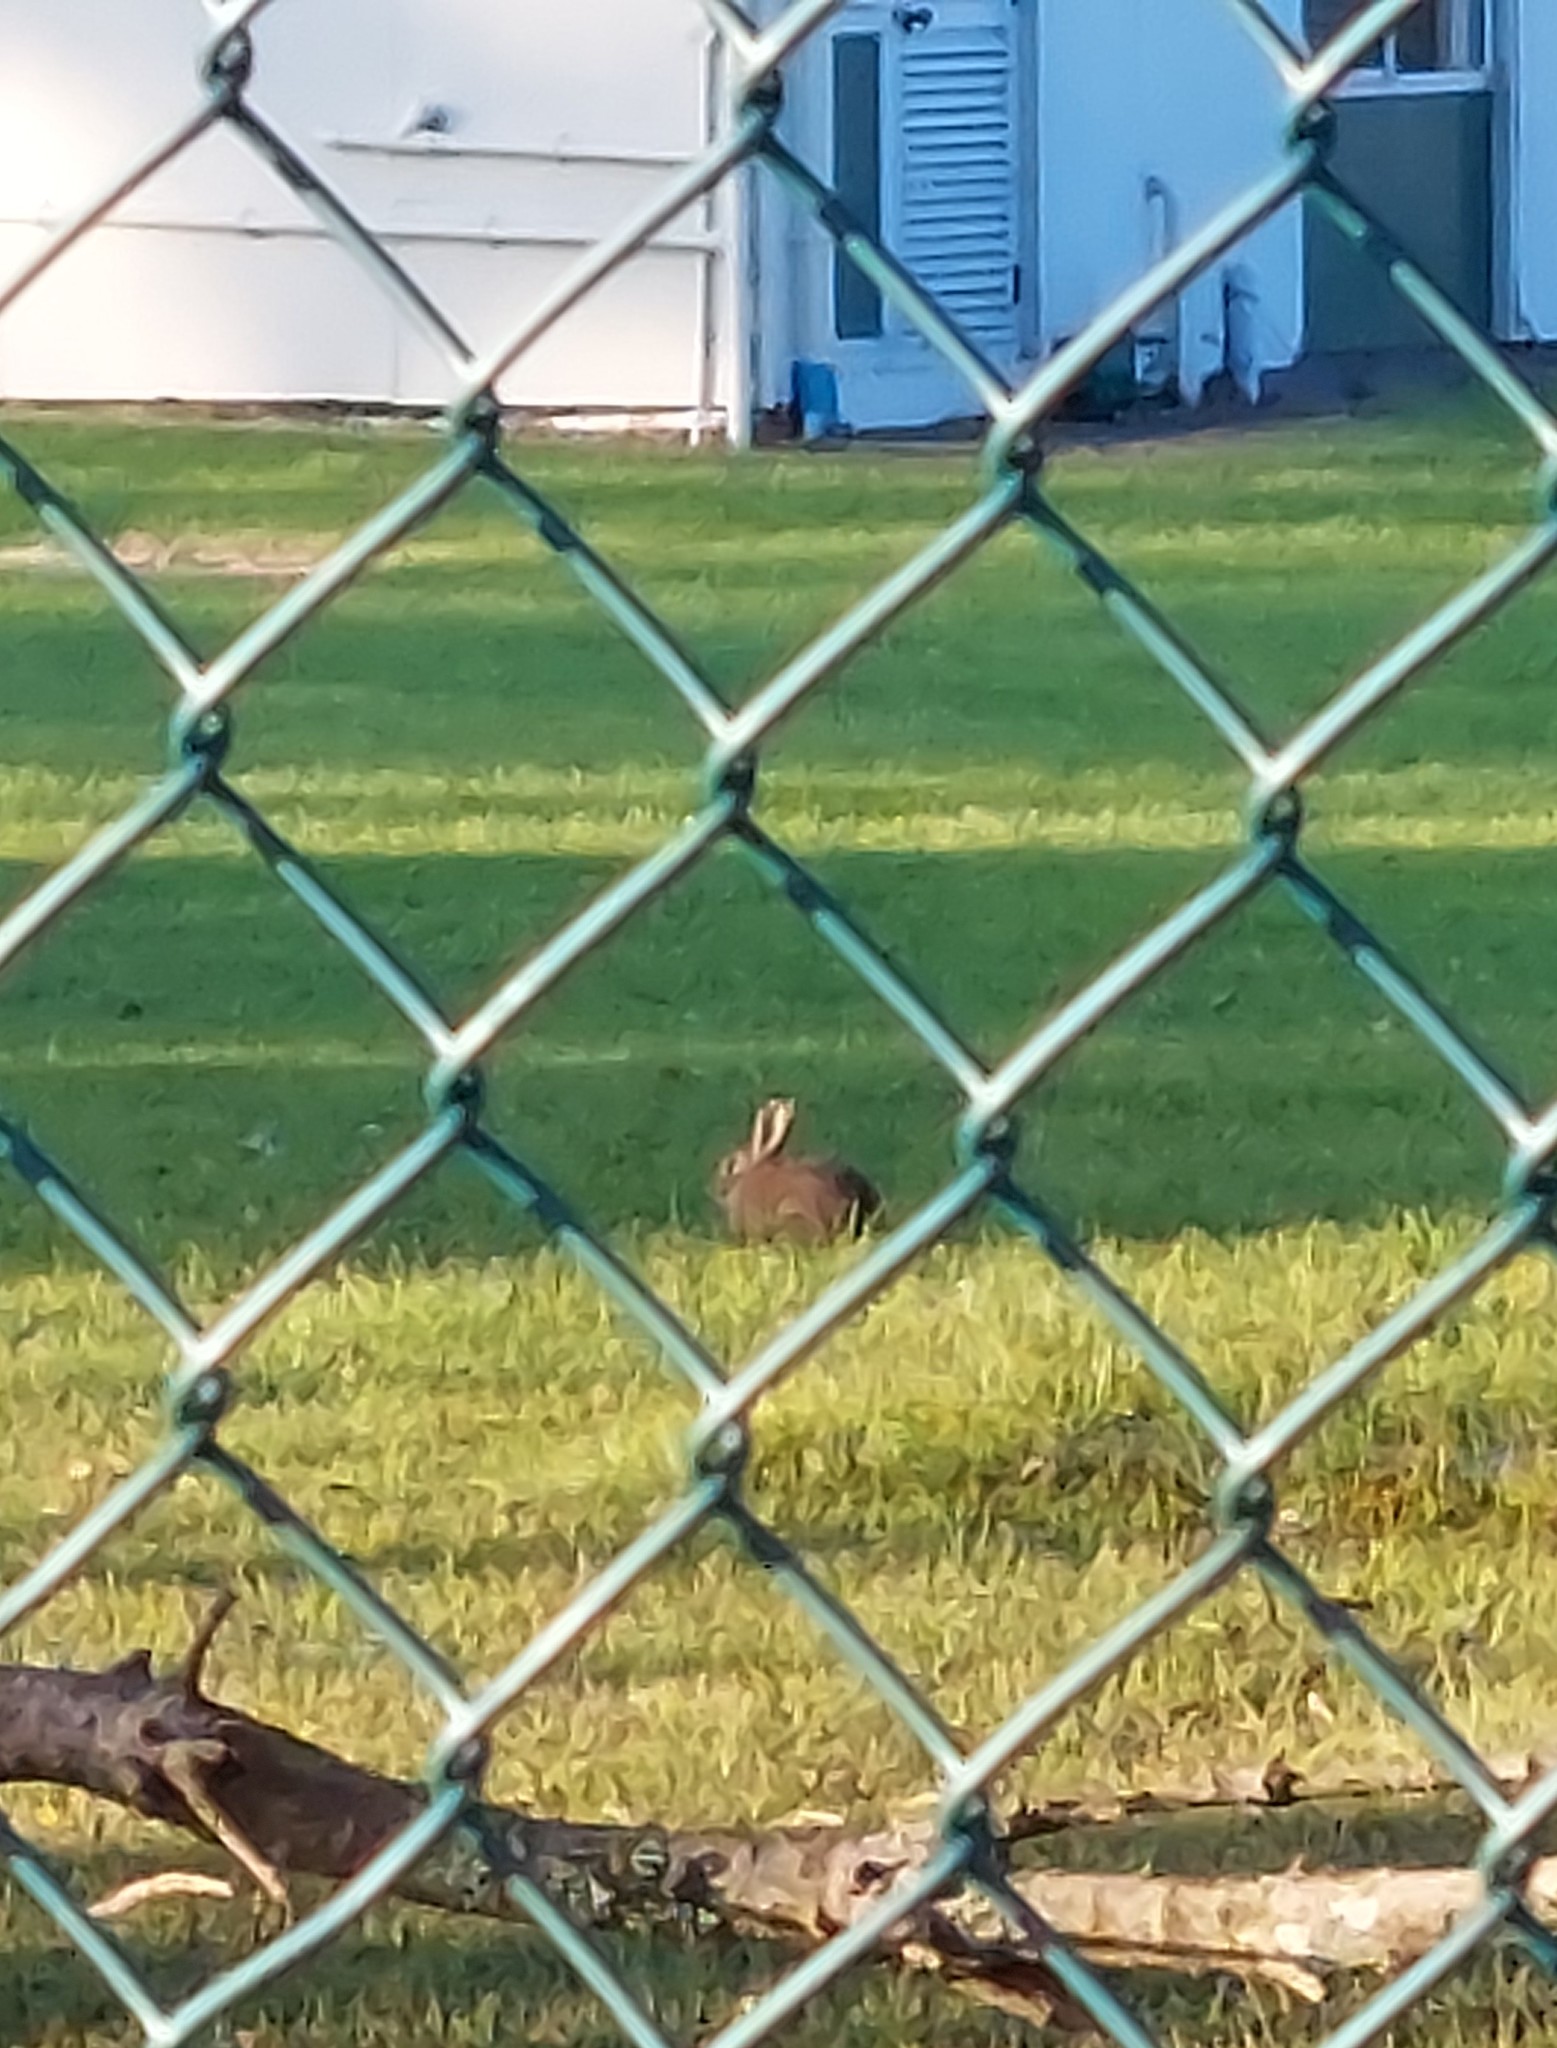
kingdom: Animalia
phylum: Chordata
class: Mammalia
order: Lagomorpha
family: Leporidae
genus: Oryctolagus
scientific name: Oryctolagus cuniculus
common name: European rabbit
